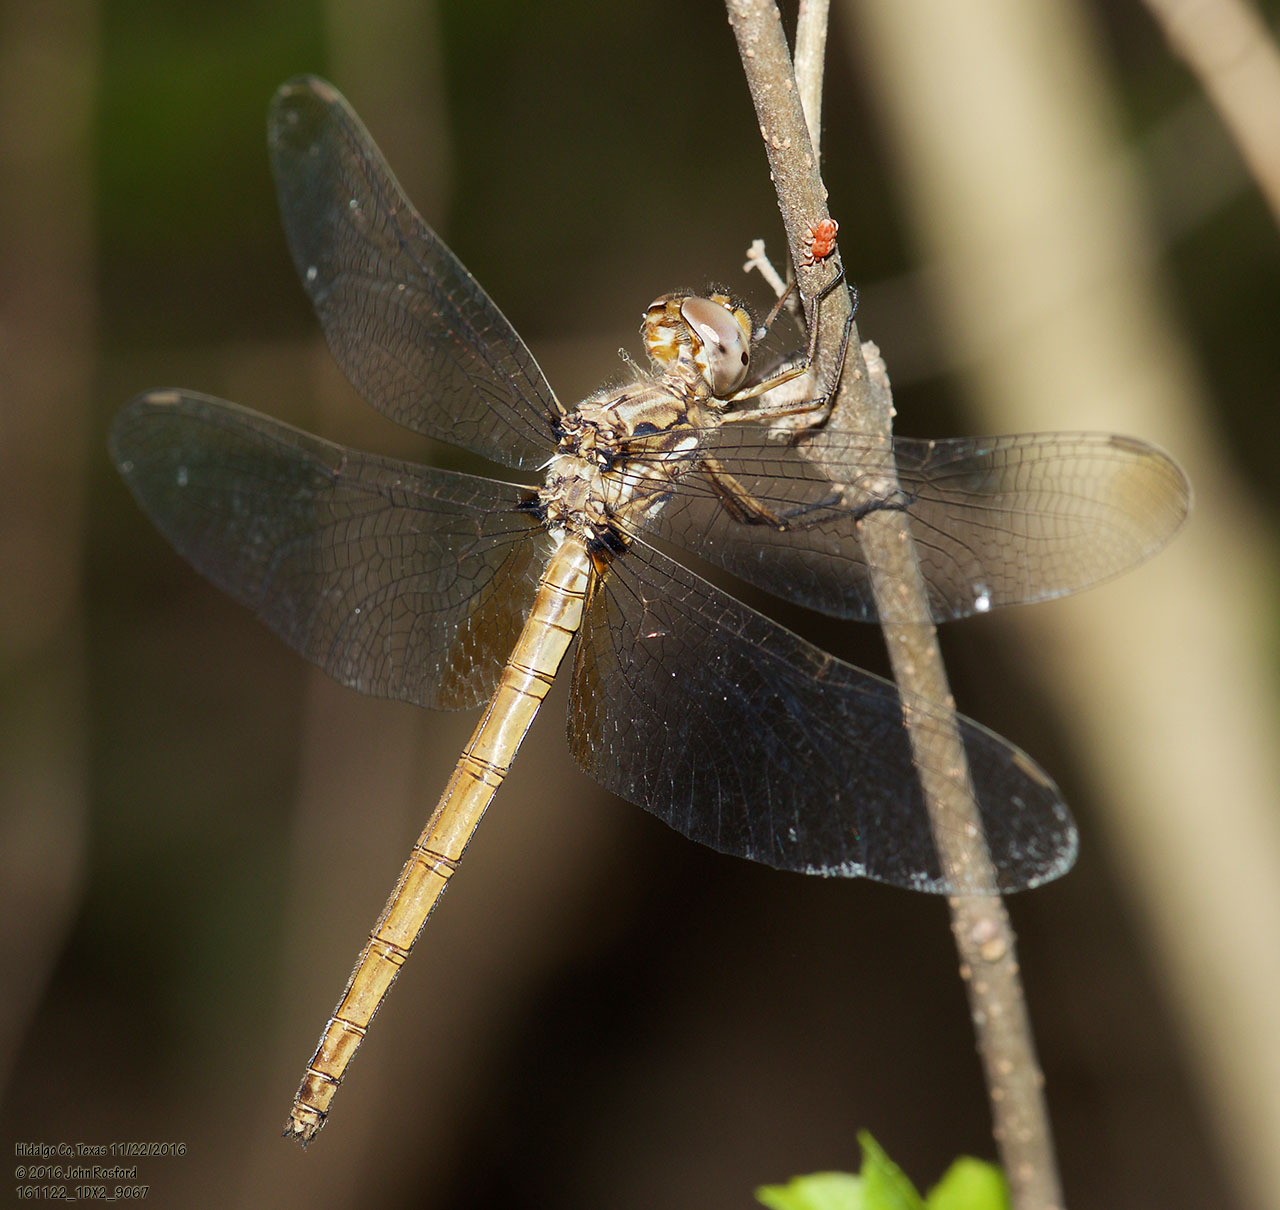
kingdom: Animalia
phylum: Arthropoda
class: Insecta
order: Odonata
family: Libellulidae
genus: Macrothemis
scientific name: Macrothemis inacuta
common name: Straw-colored sylph
